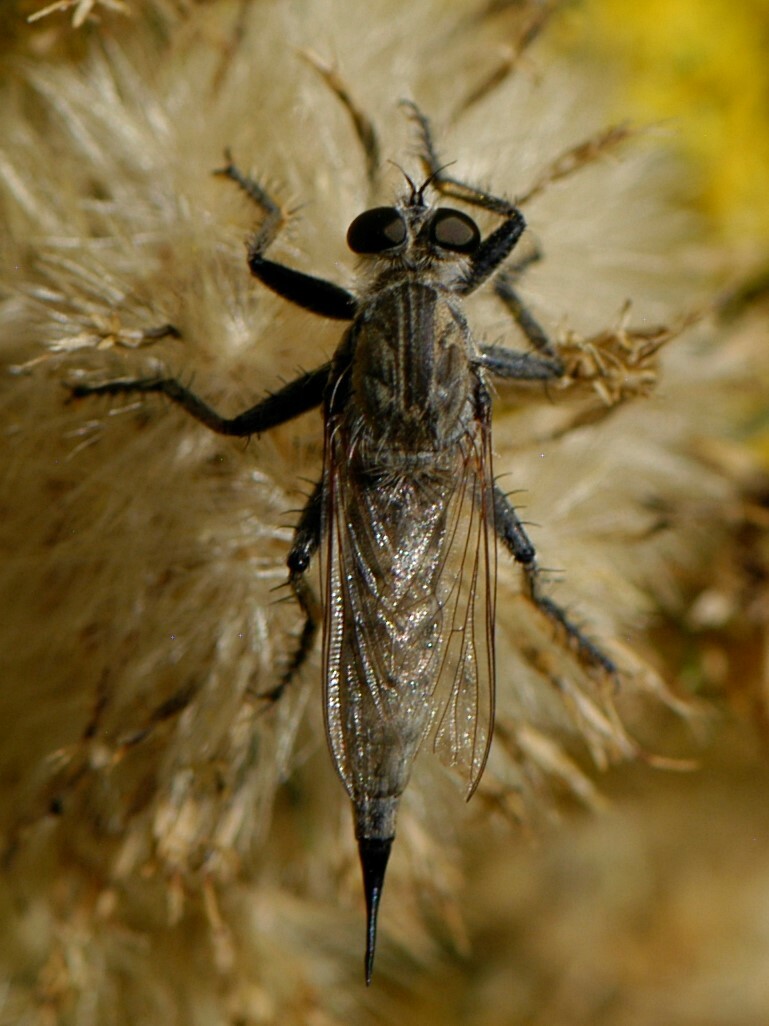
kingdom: Animalia
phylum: Arthropoda
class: Insecta
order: Diptera
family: Asilidae
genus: Efferia
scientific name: Efferia
